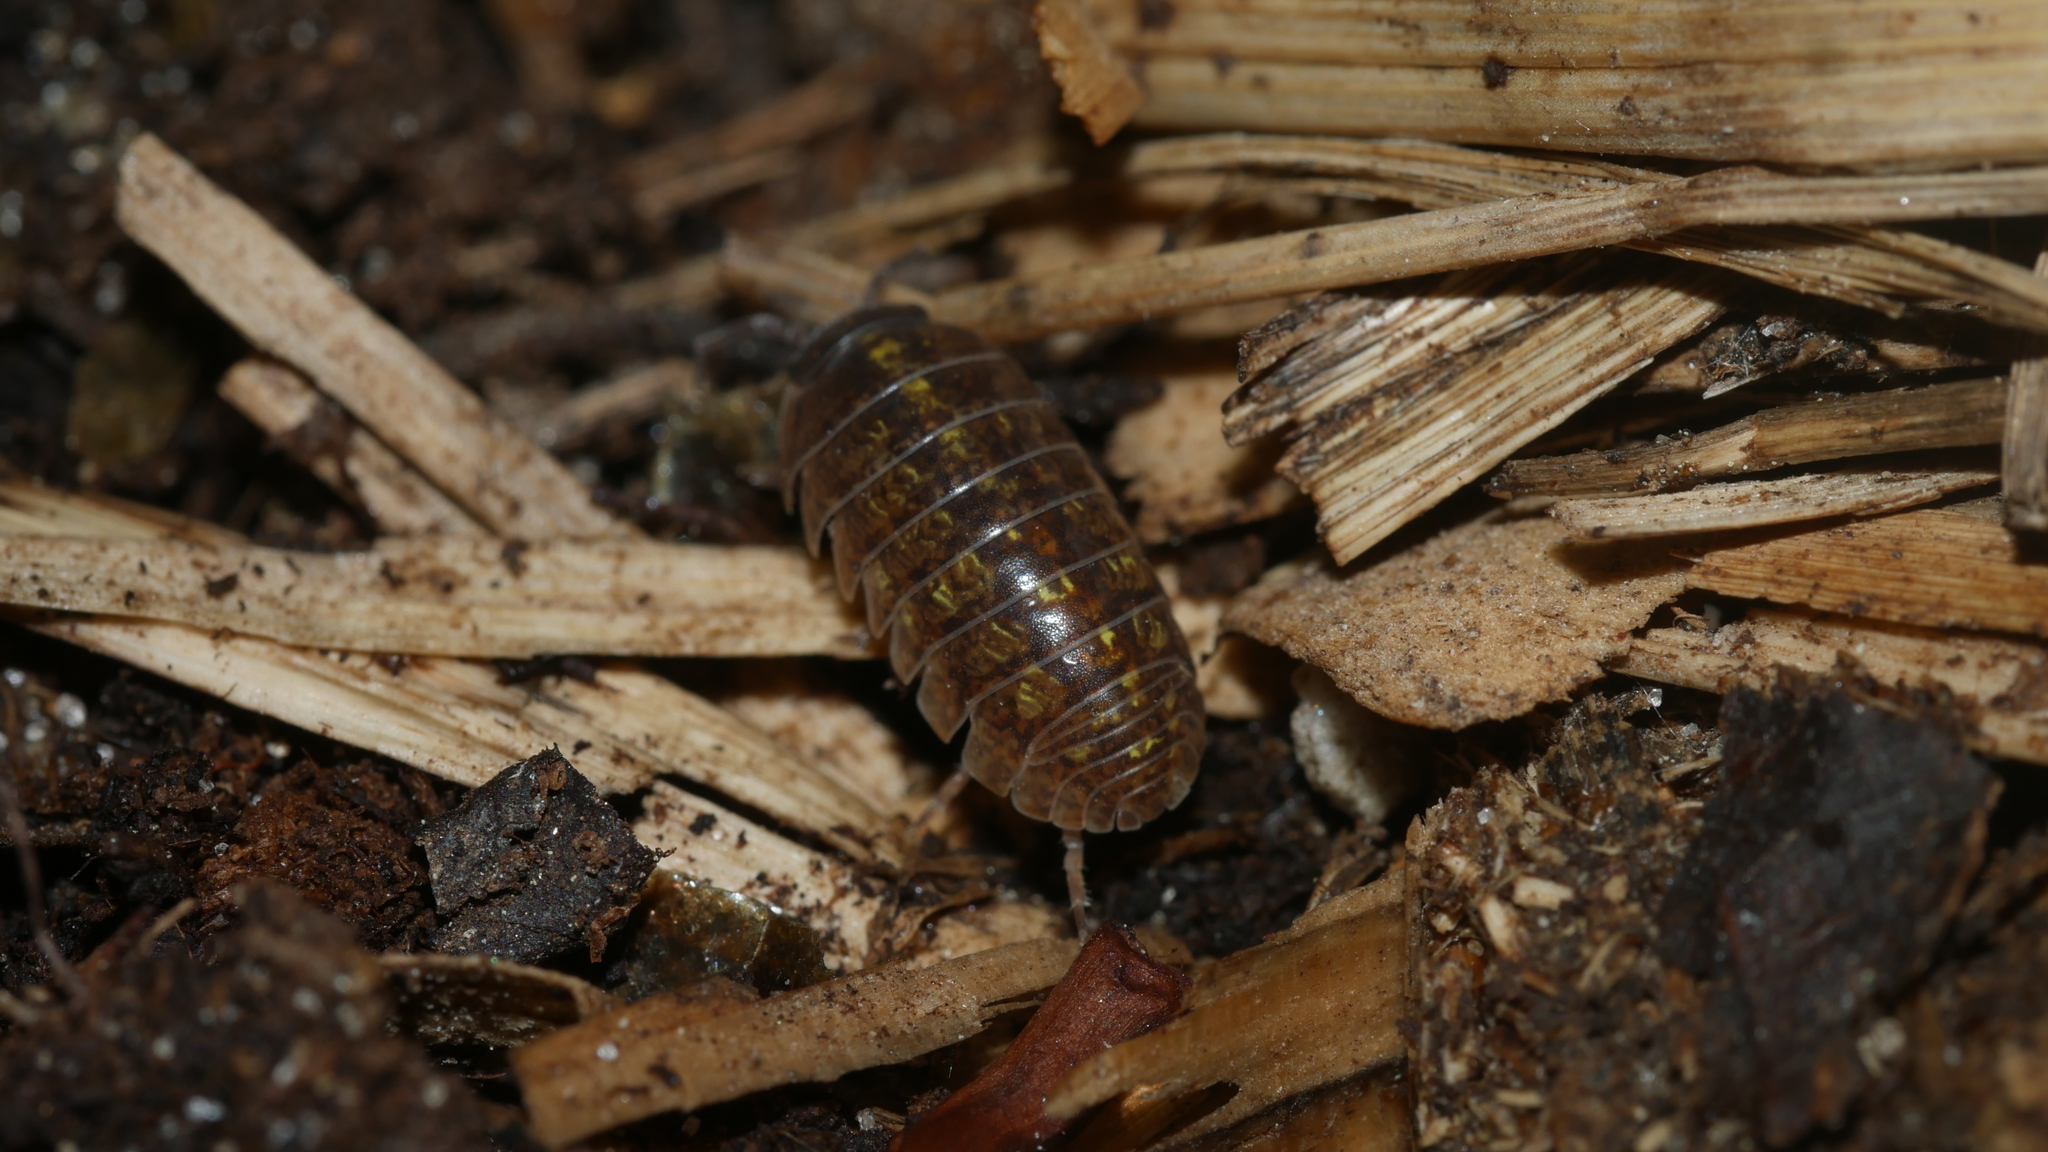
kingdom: Animalia
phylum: Arthropoda
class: Malacostraca
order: Isopoda
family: Armadillidiidae
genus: Armadillidium
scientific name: Armadillidium vulgare
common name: Common pill woodlouse
